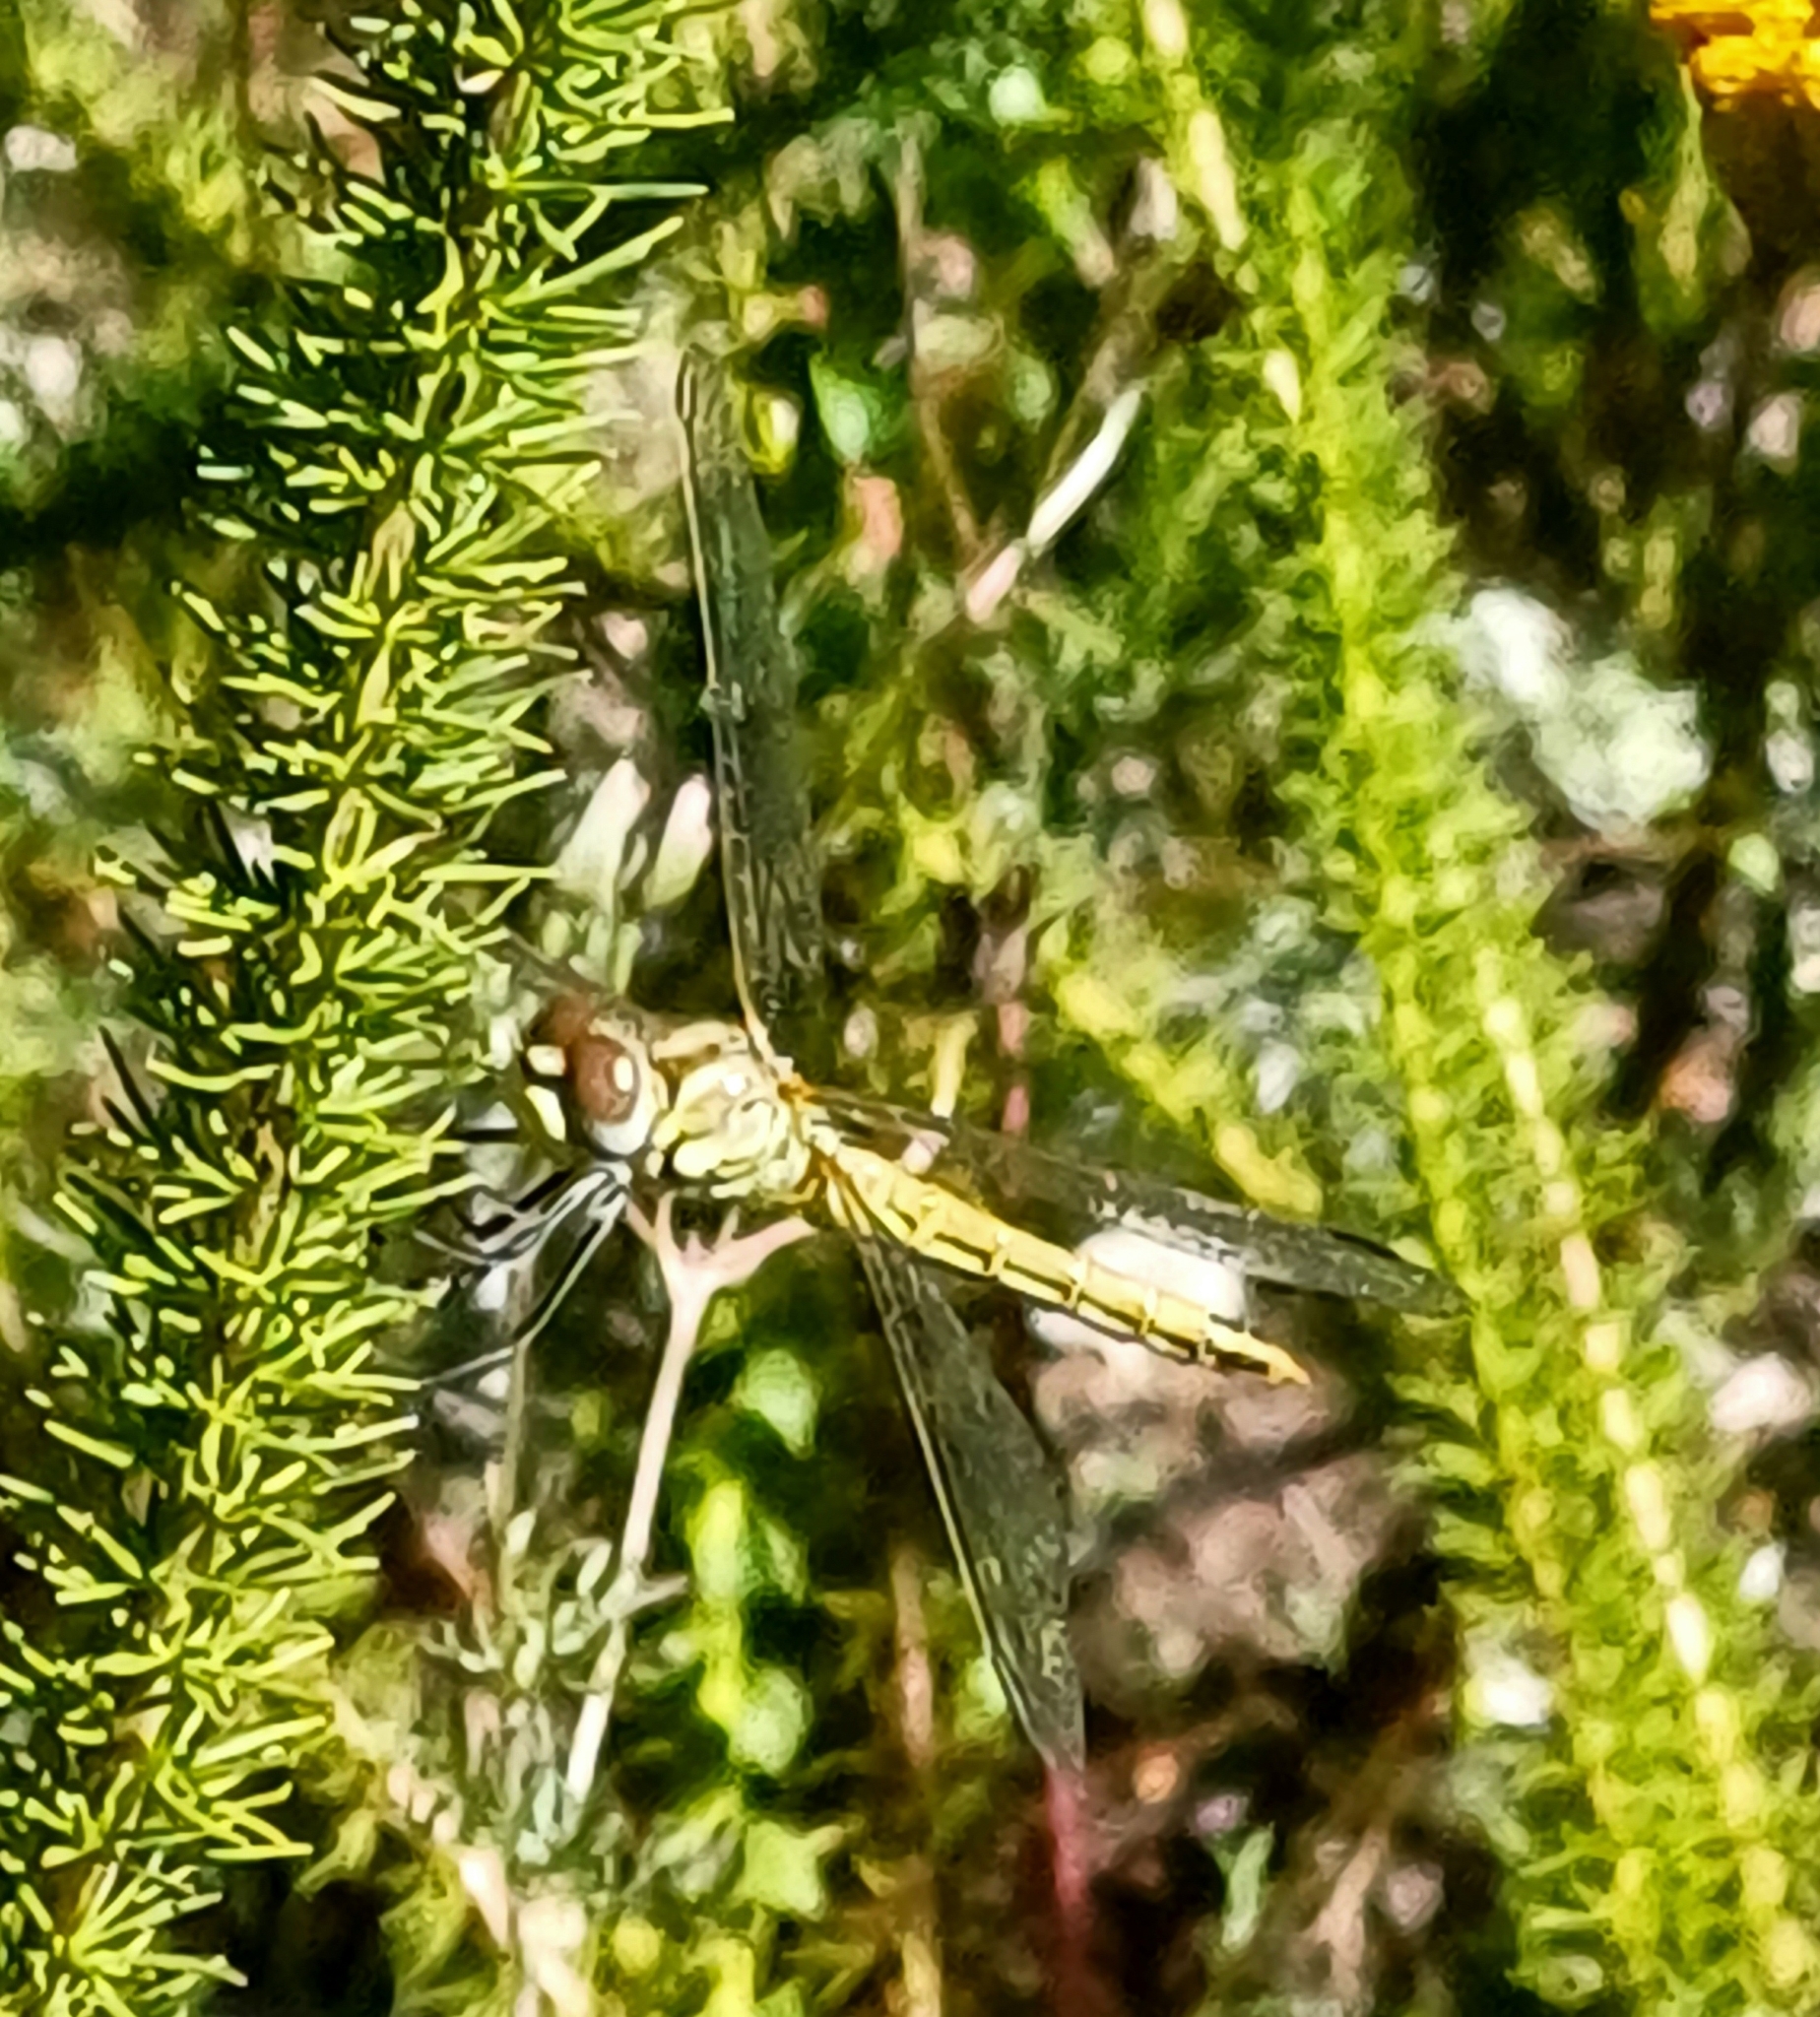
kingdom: Animalia
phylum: Arthropoda
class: Insecta
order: Odonata
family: Libellulidae
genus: Sympetrum
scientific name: Sympetrum fonscolombii
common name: Red-veined darter
